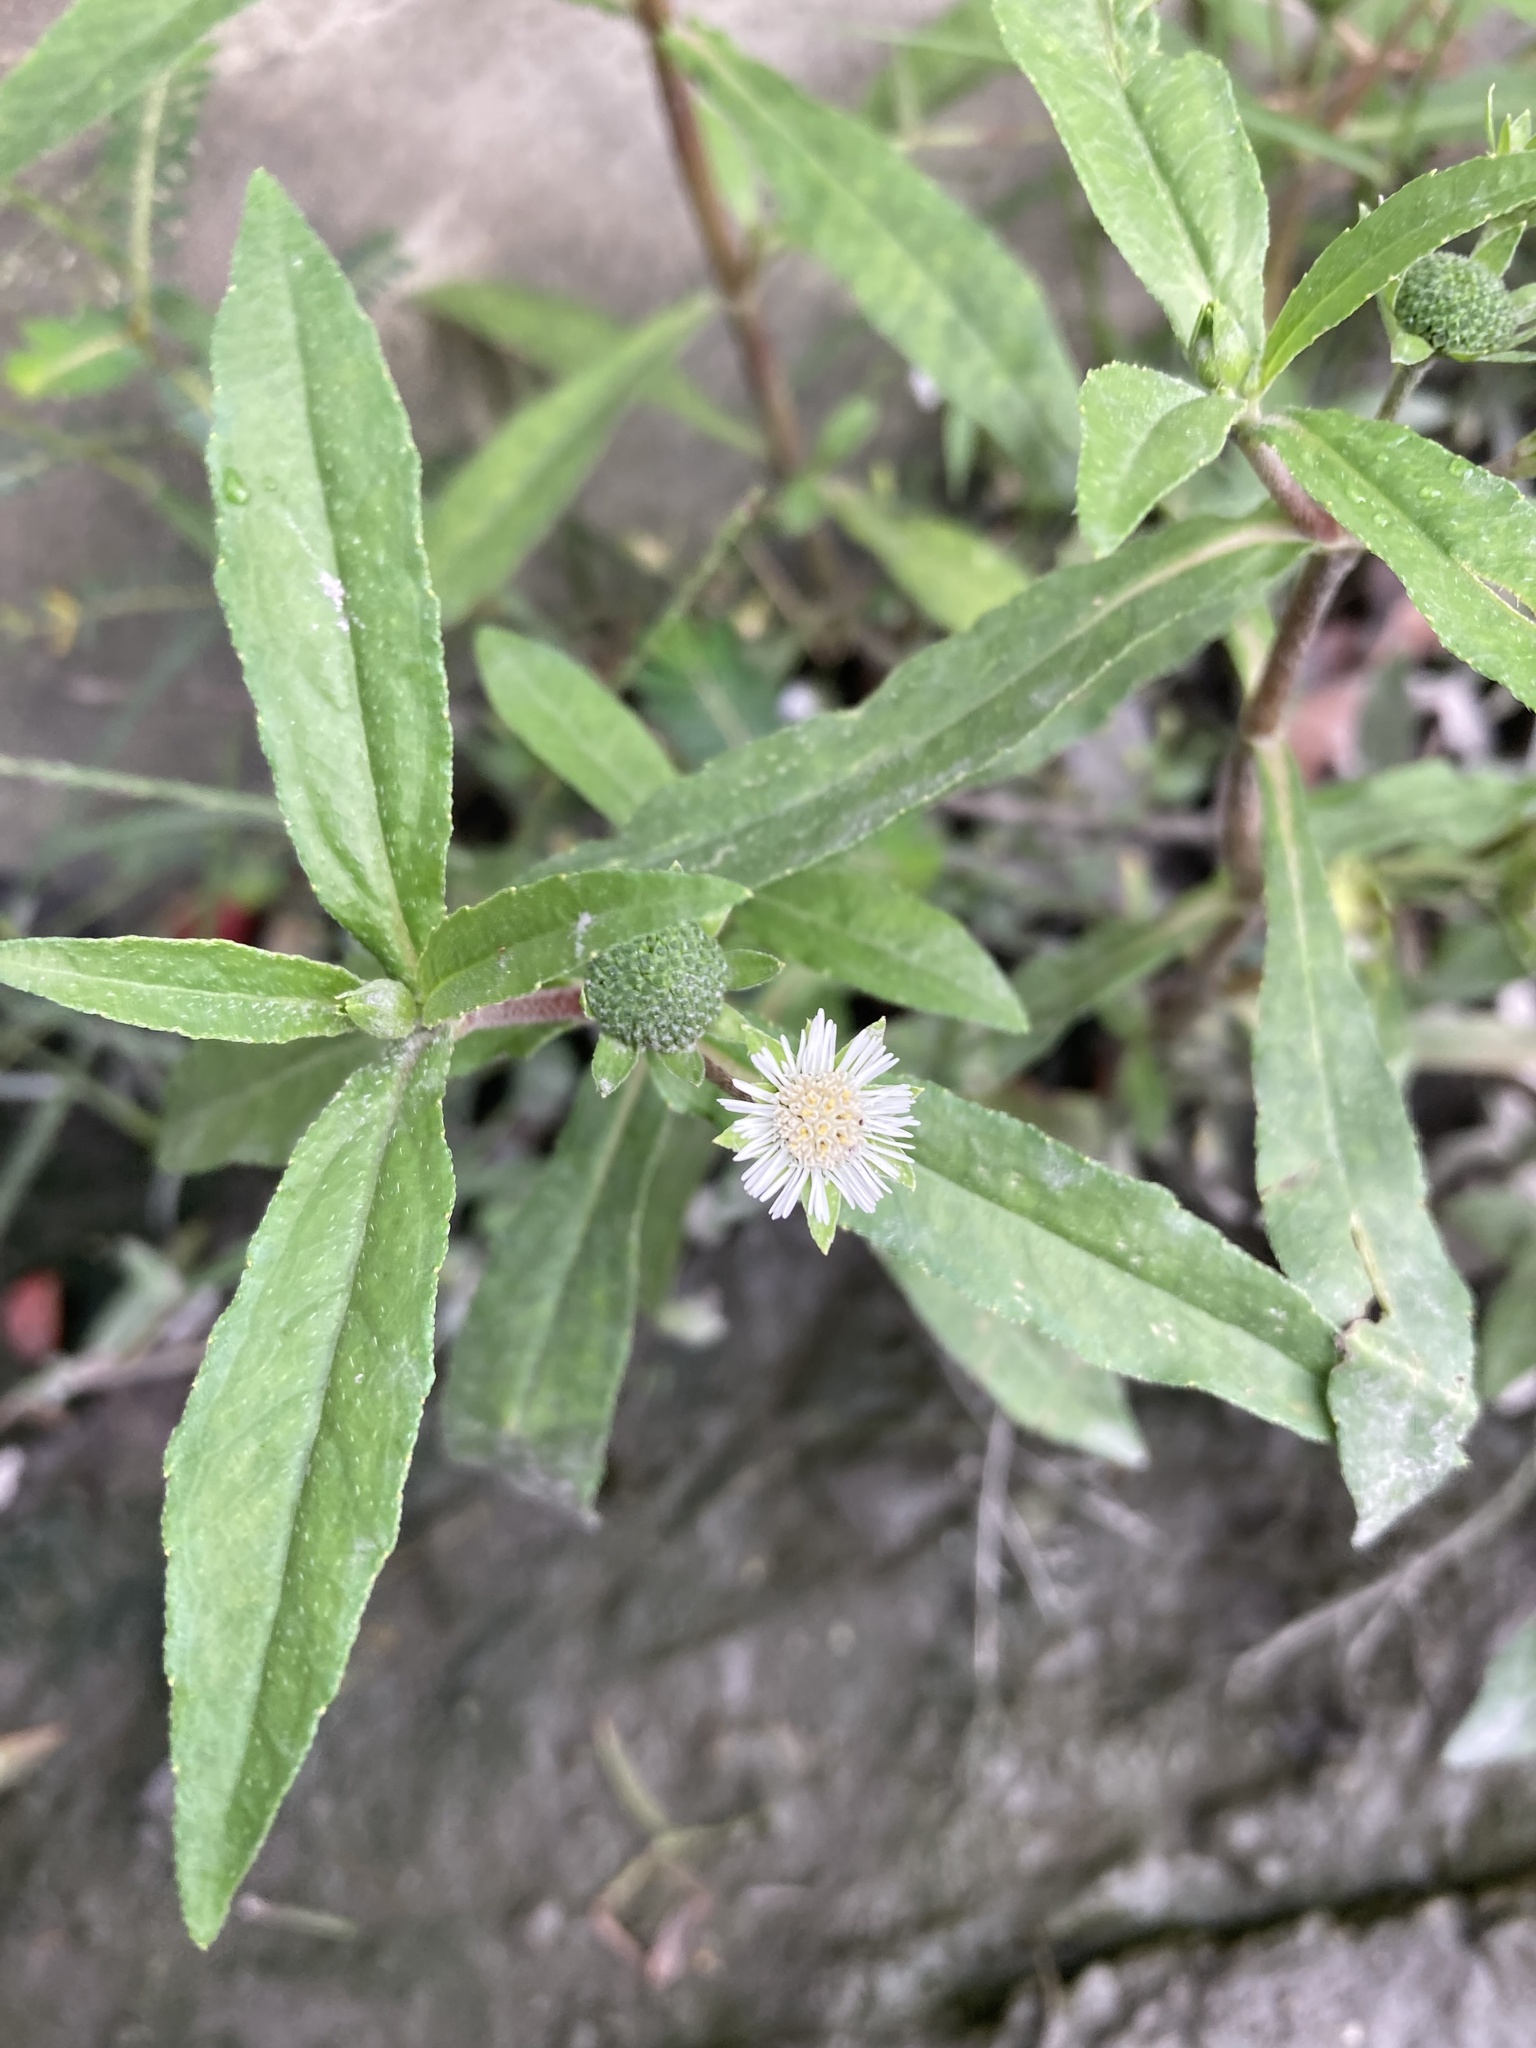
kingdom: Plantae
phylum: Tracheophyta
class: Magnoliopsida
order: Asterales
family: Asteraceae
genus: Eclipta
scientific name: Eclipta prostrata
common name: False daisy
